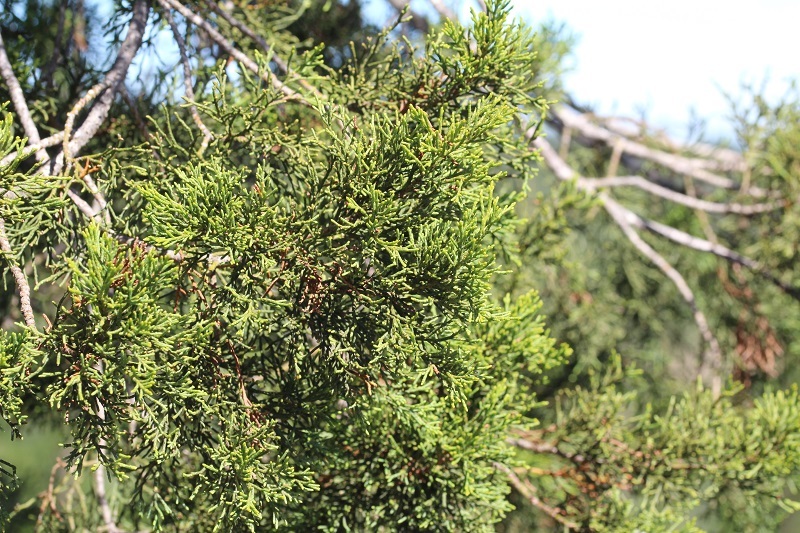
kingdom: Plantae
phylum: Tracheophyta
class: Pinopsida
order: Pinales
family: Cupressaceae
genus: Widdringtonia
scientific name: Widdringtonia nodiflora
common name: Cape cypress
